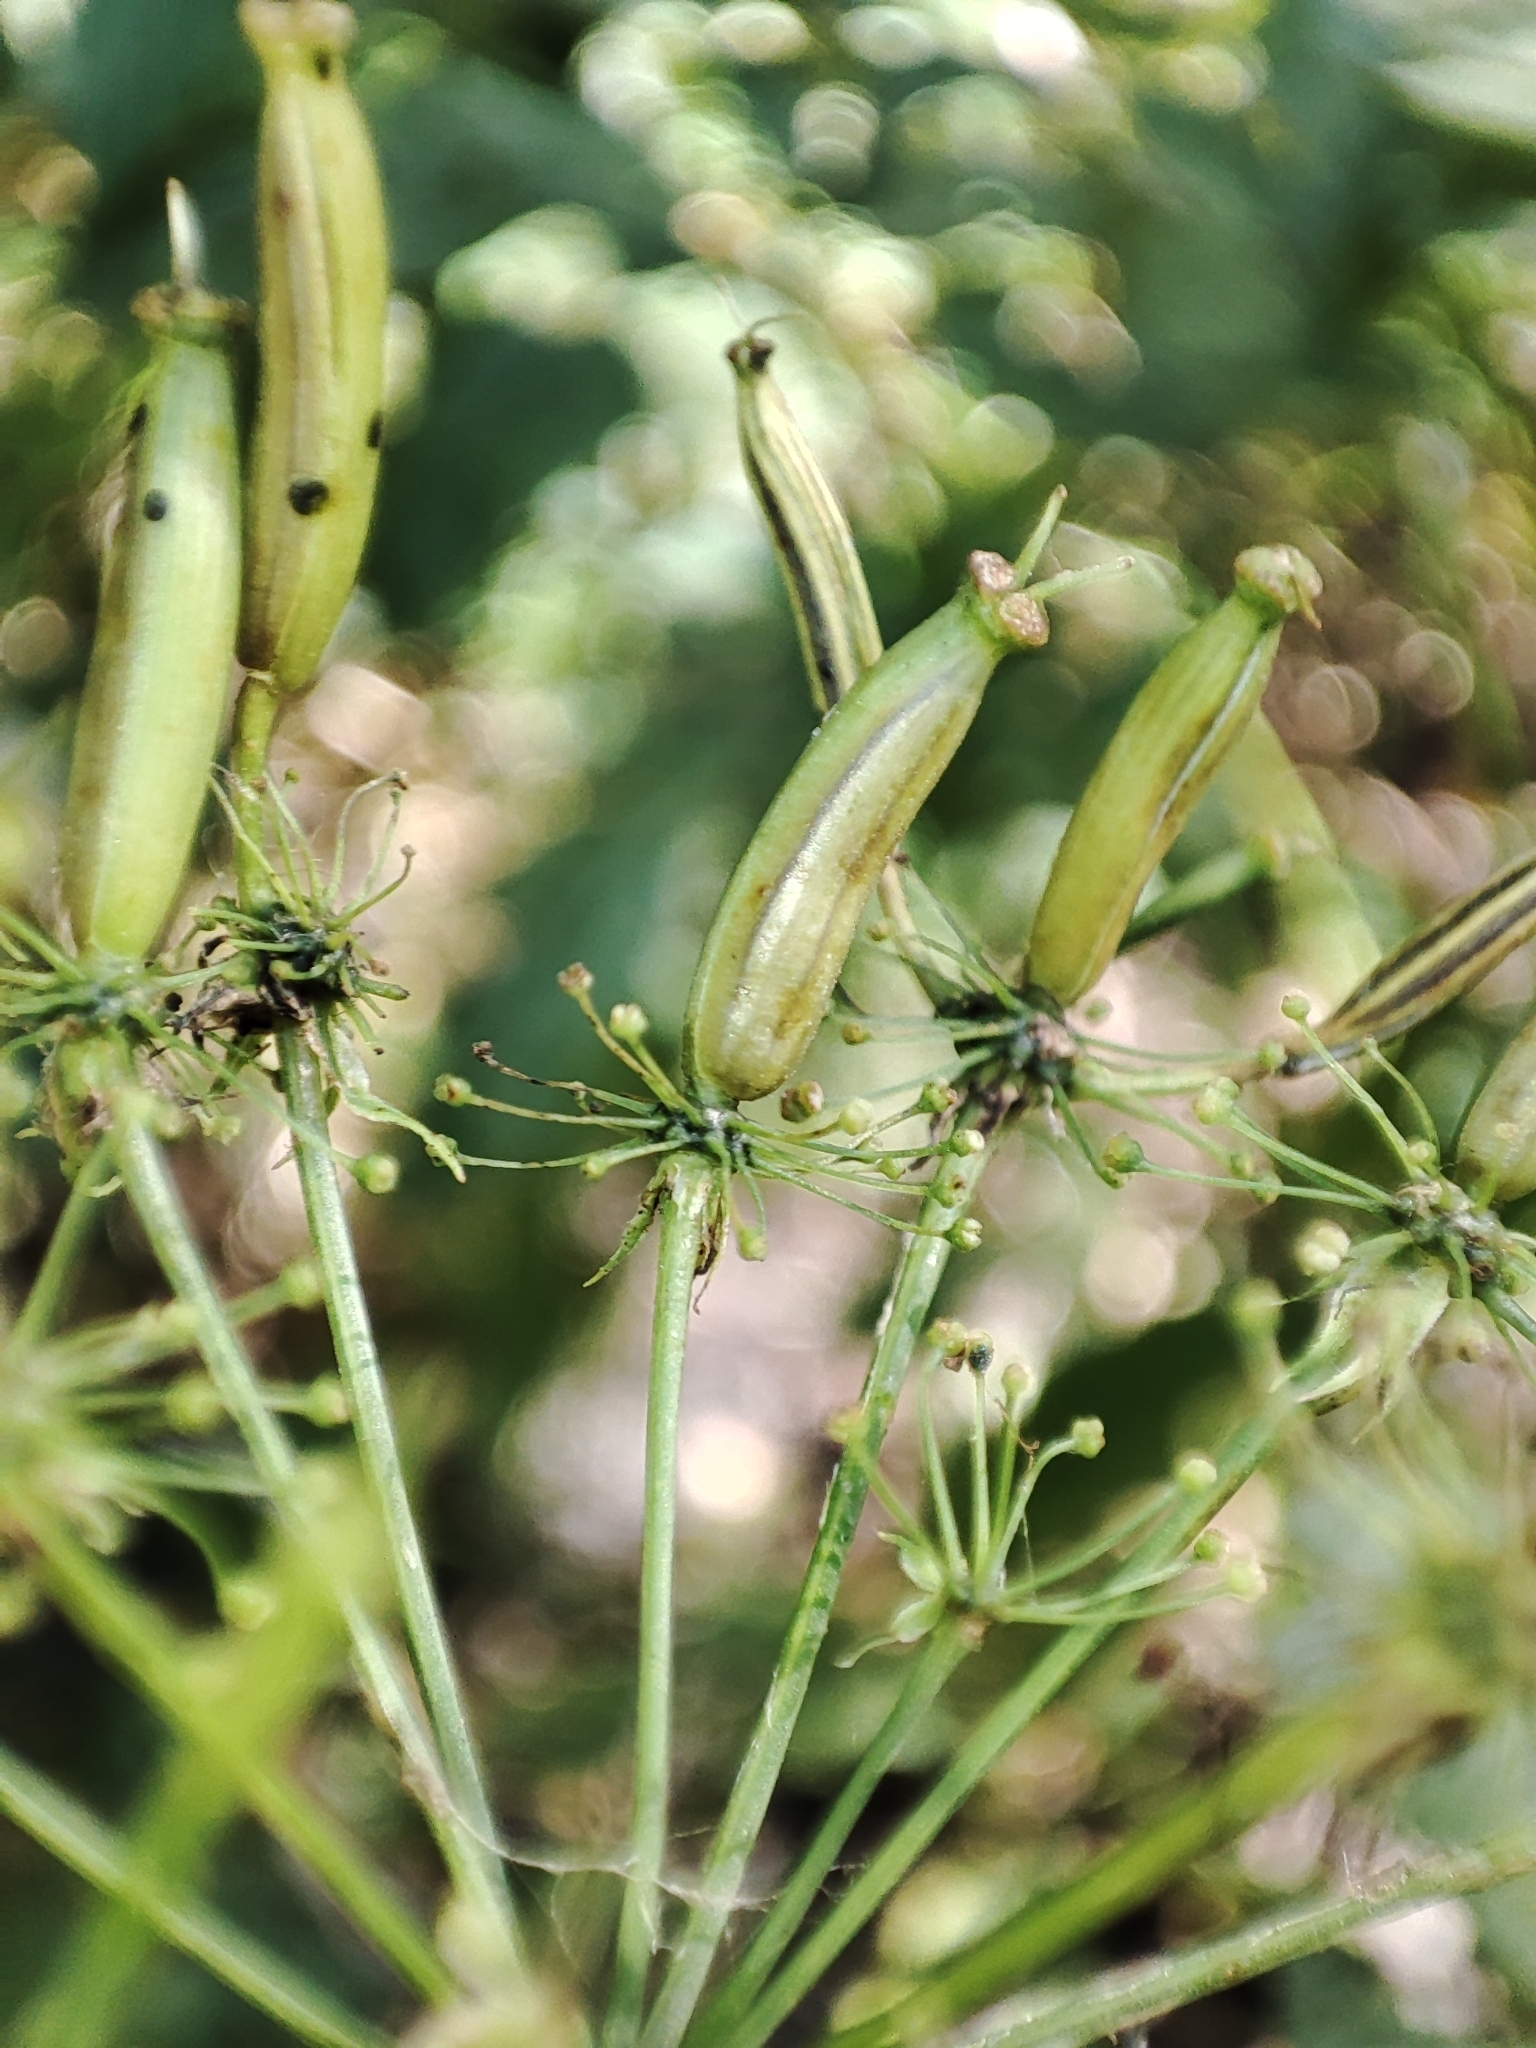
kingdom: Plantae
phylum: Tracheophyta
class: Magnoliopsida
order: Apiales
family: Apiaceae
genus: Chaerophyllum
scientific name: Chaerophyllum aromaticum
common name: Broadleaf chervil
